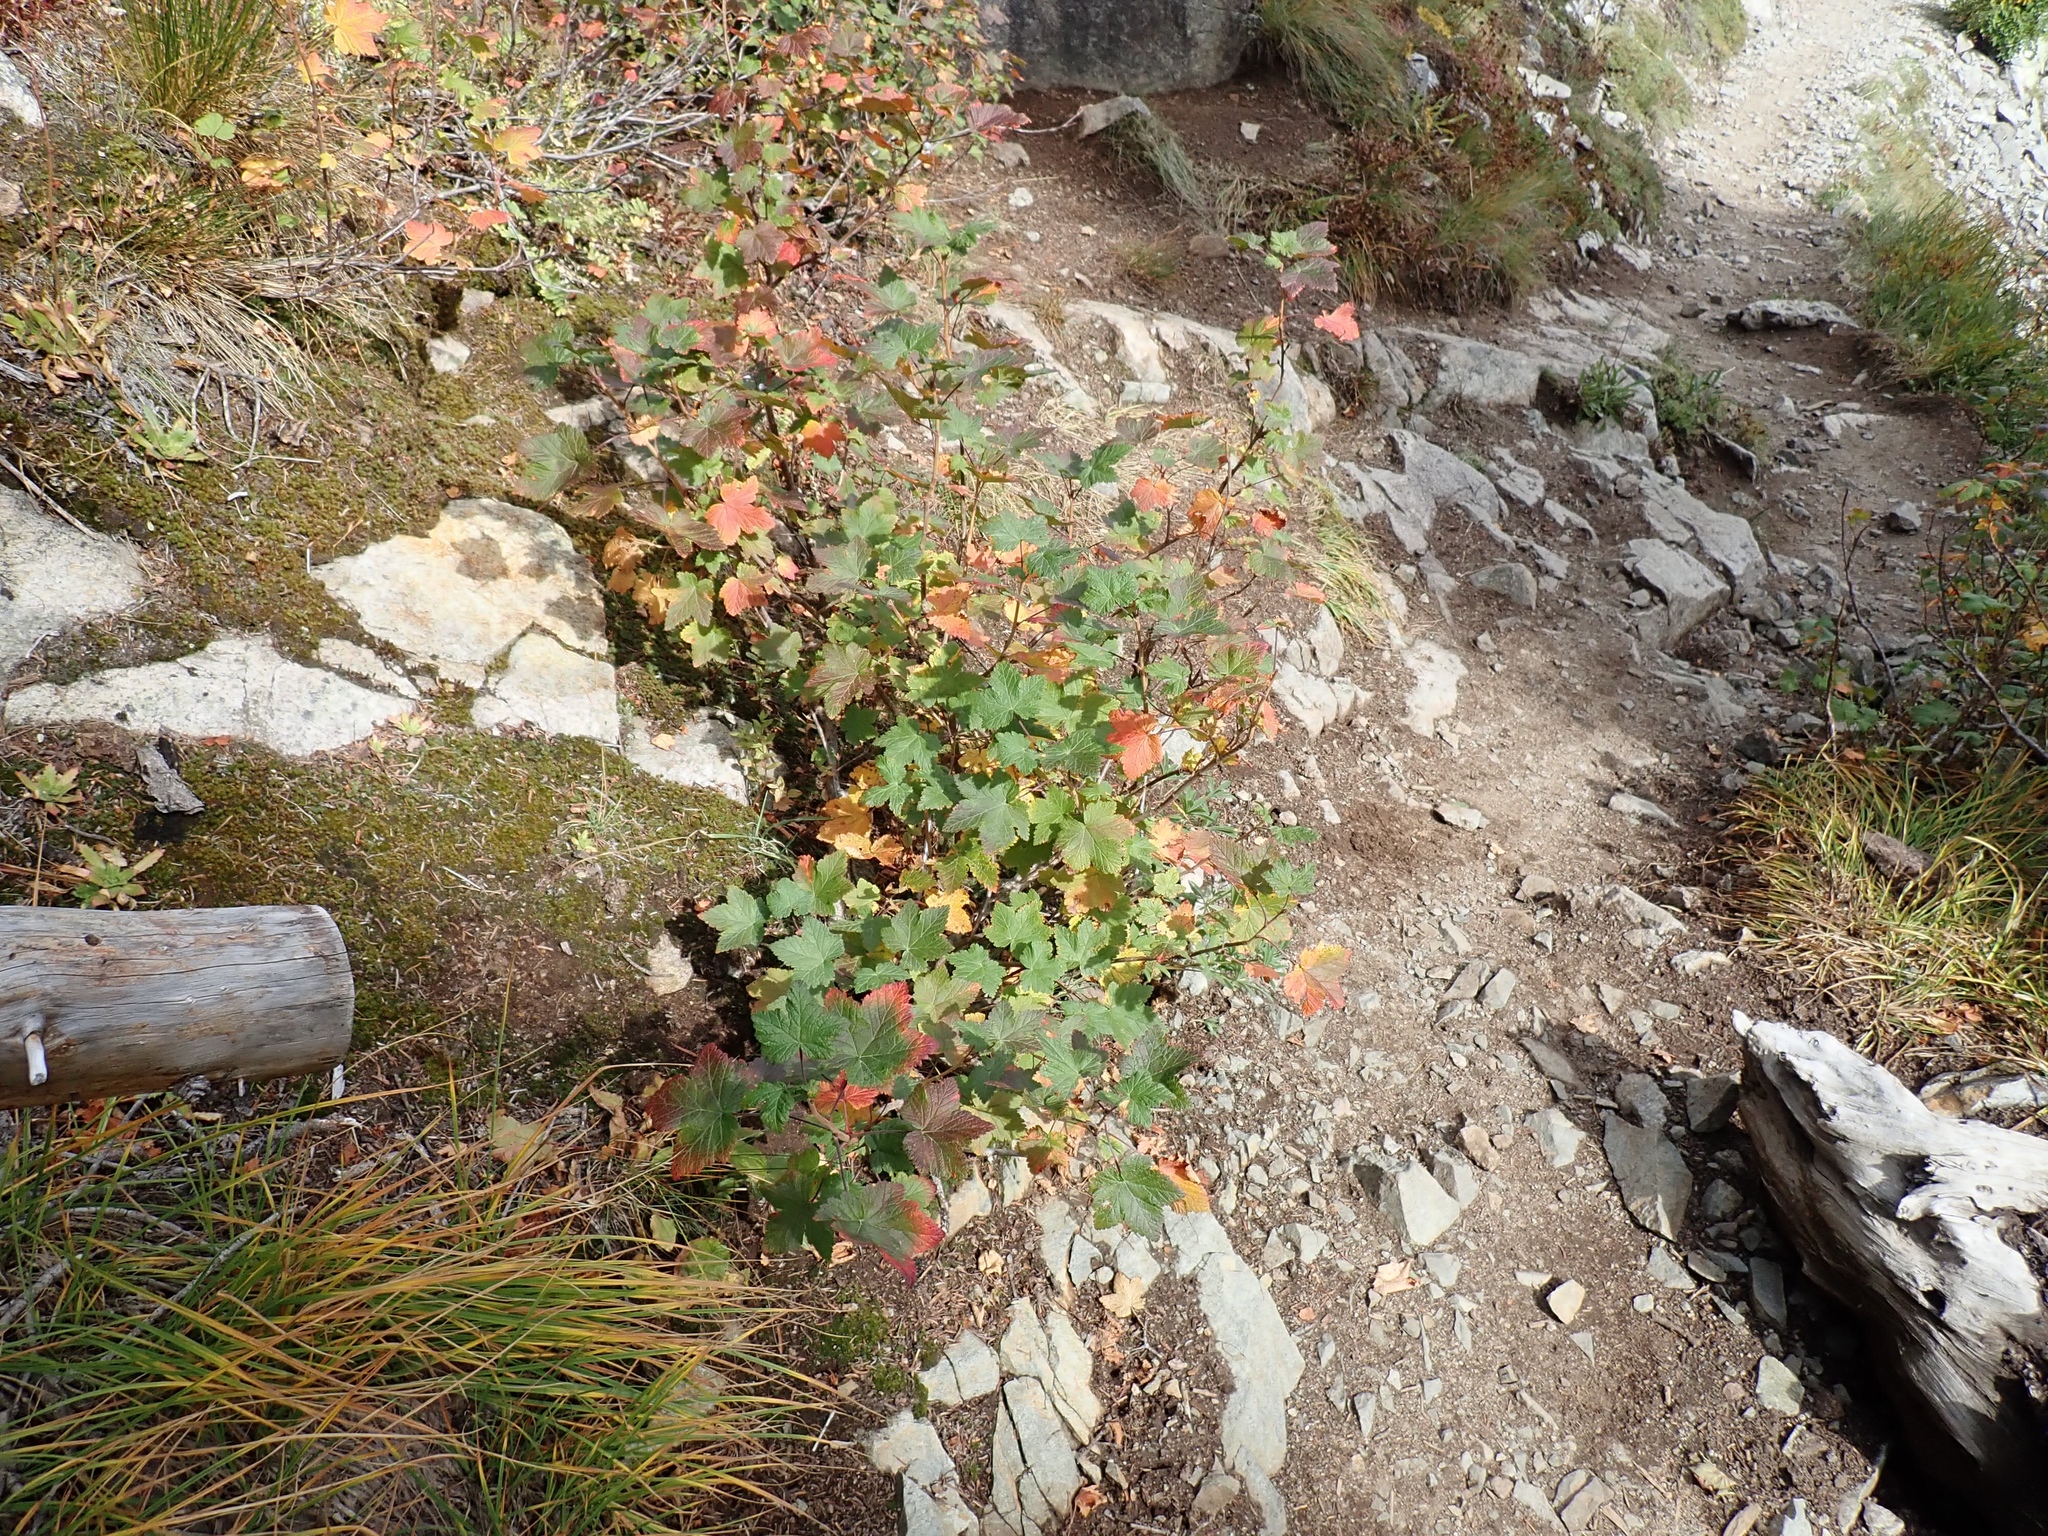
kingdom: Plantae
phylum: Tracheophyta
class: Magnoliopsida
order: Saxifragales
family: Grossulariaceae
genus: Ribes
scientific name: Ribes acerifolium
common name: Maple-leaved black currant
